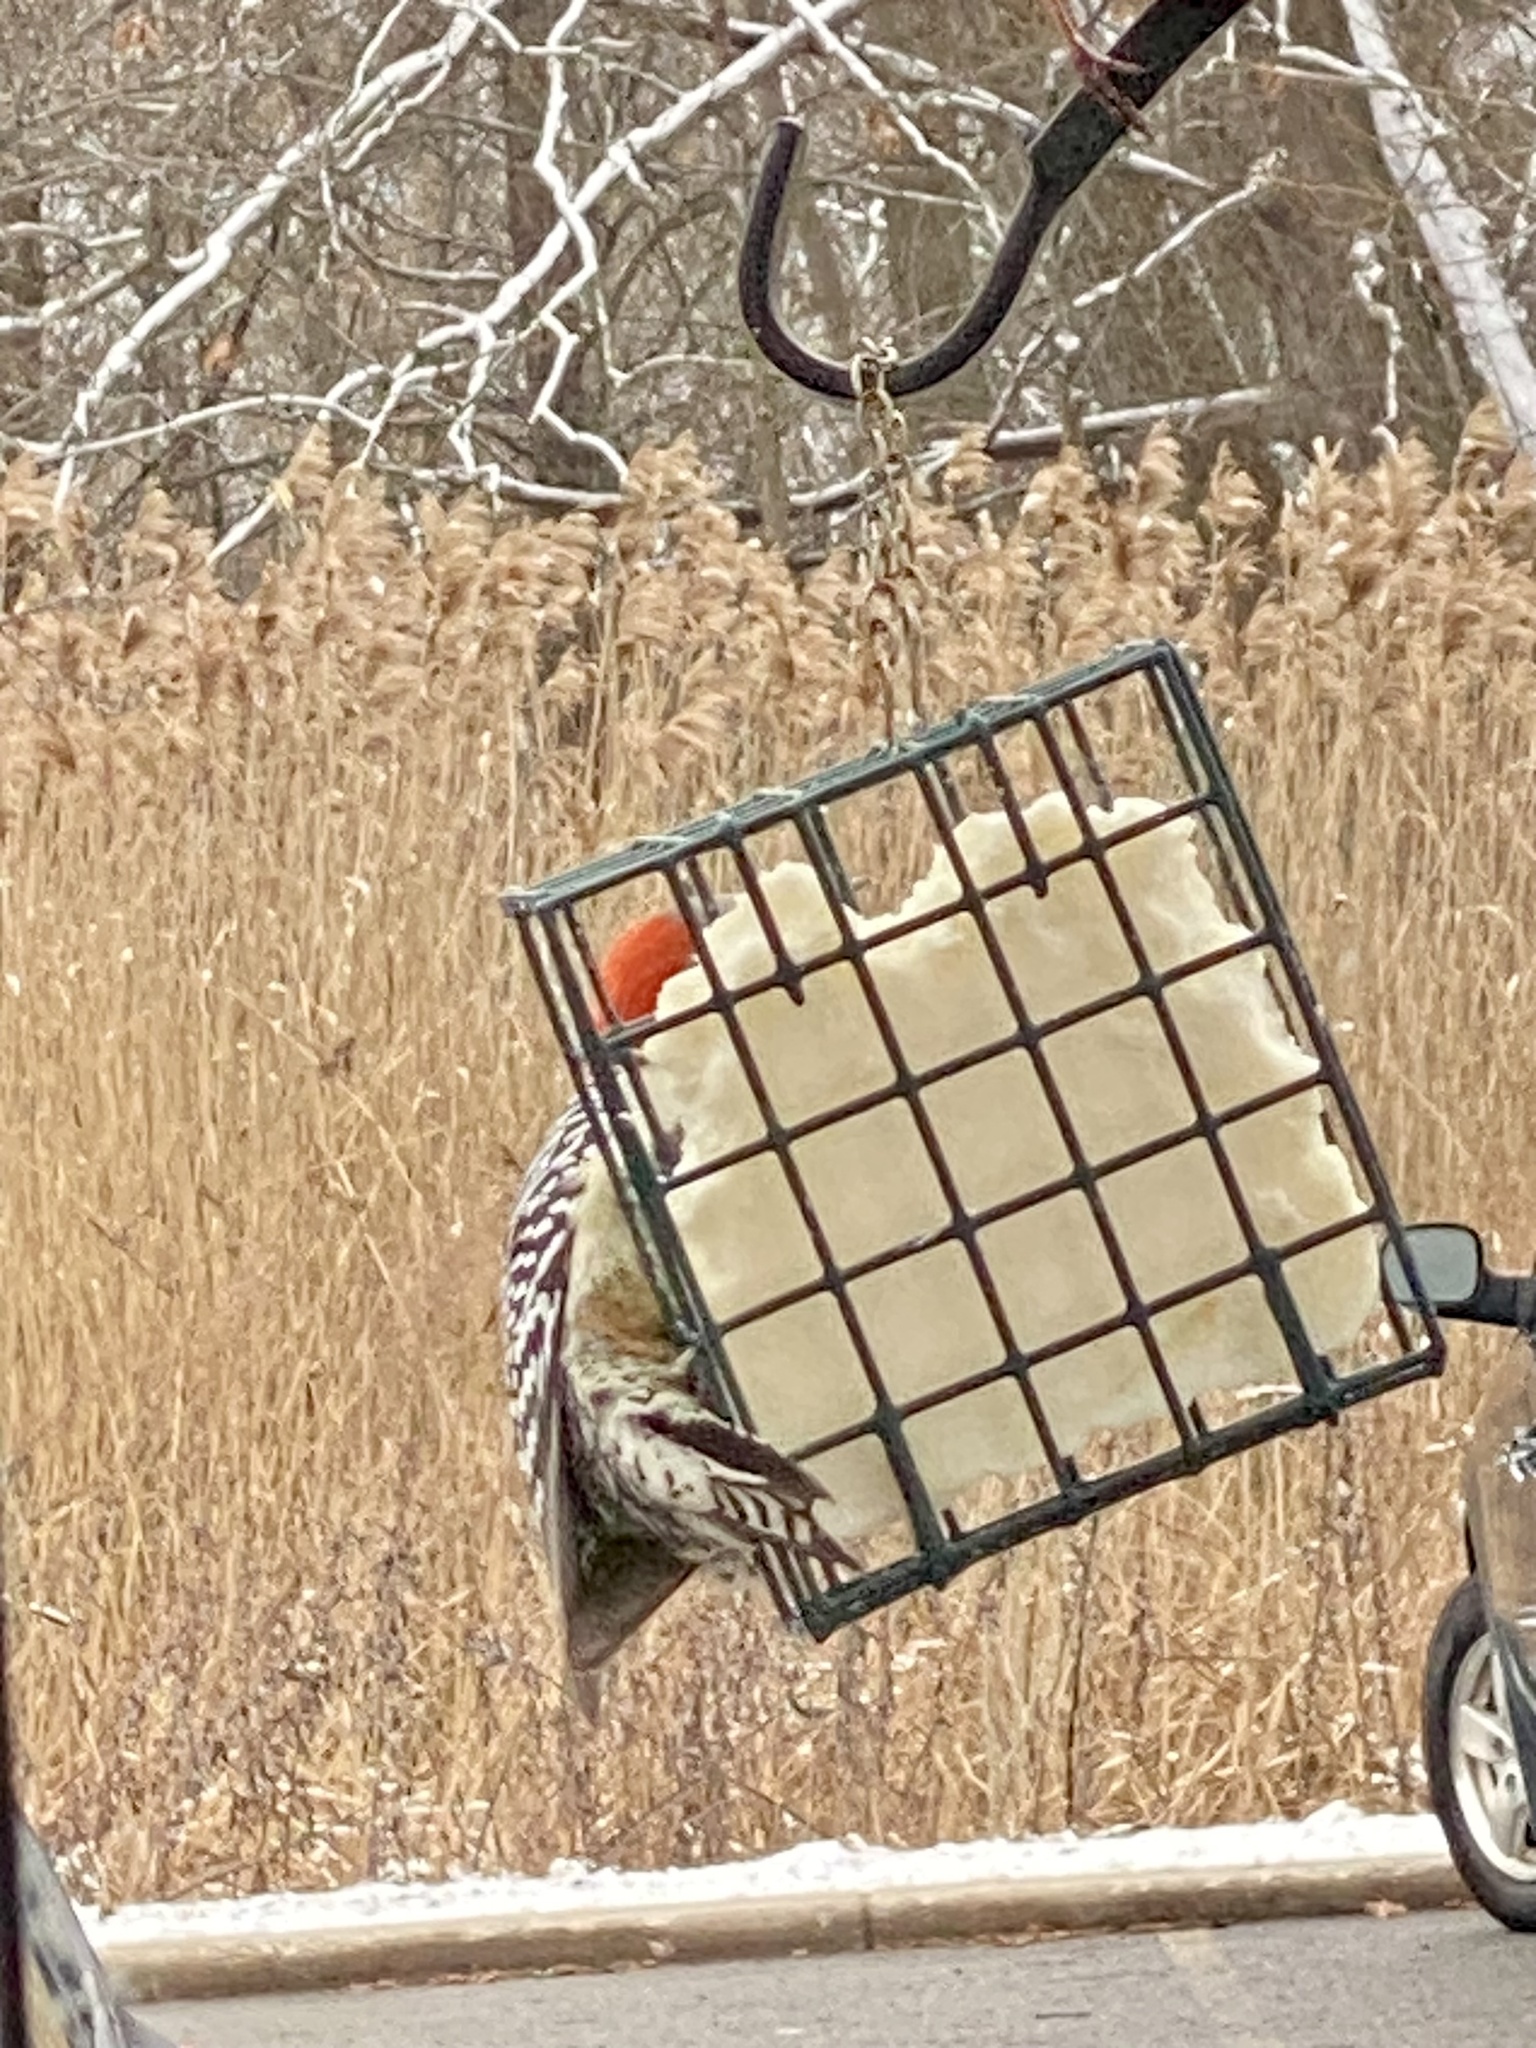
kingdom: Animalia
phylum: Chordata
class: Aves
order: Piciformes
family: Picidae
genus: Melanerpes
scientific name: Melanerpes carolinus
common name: Red-bellied woodpecker
